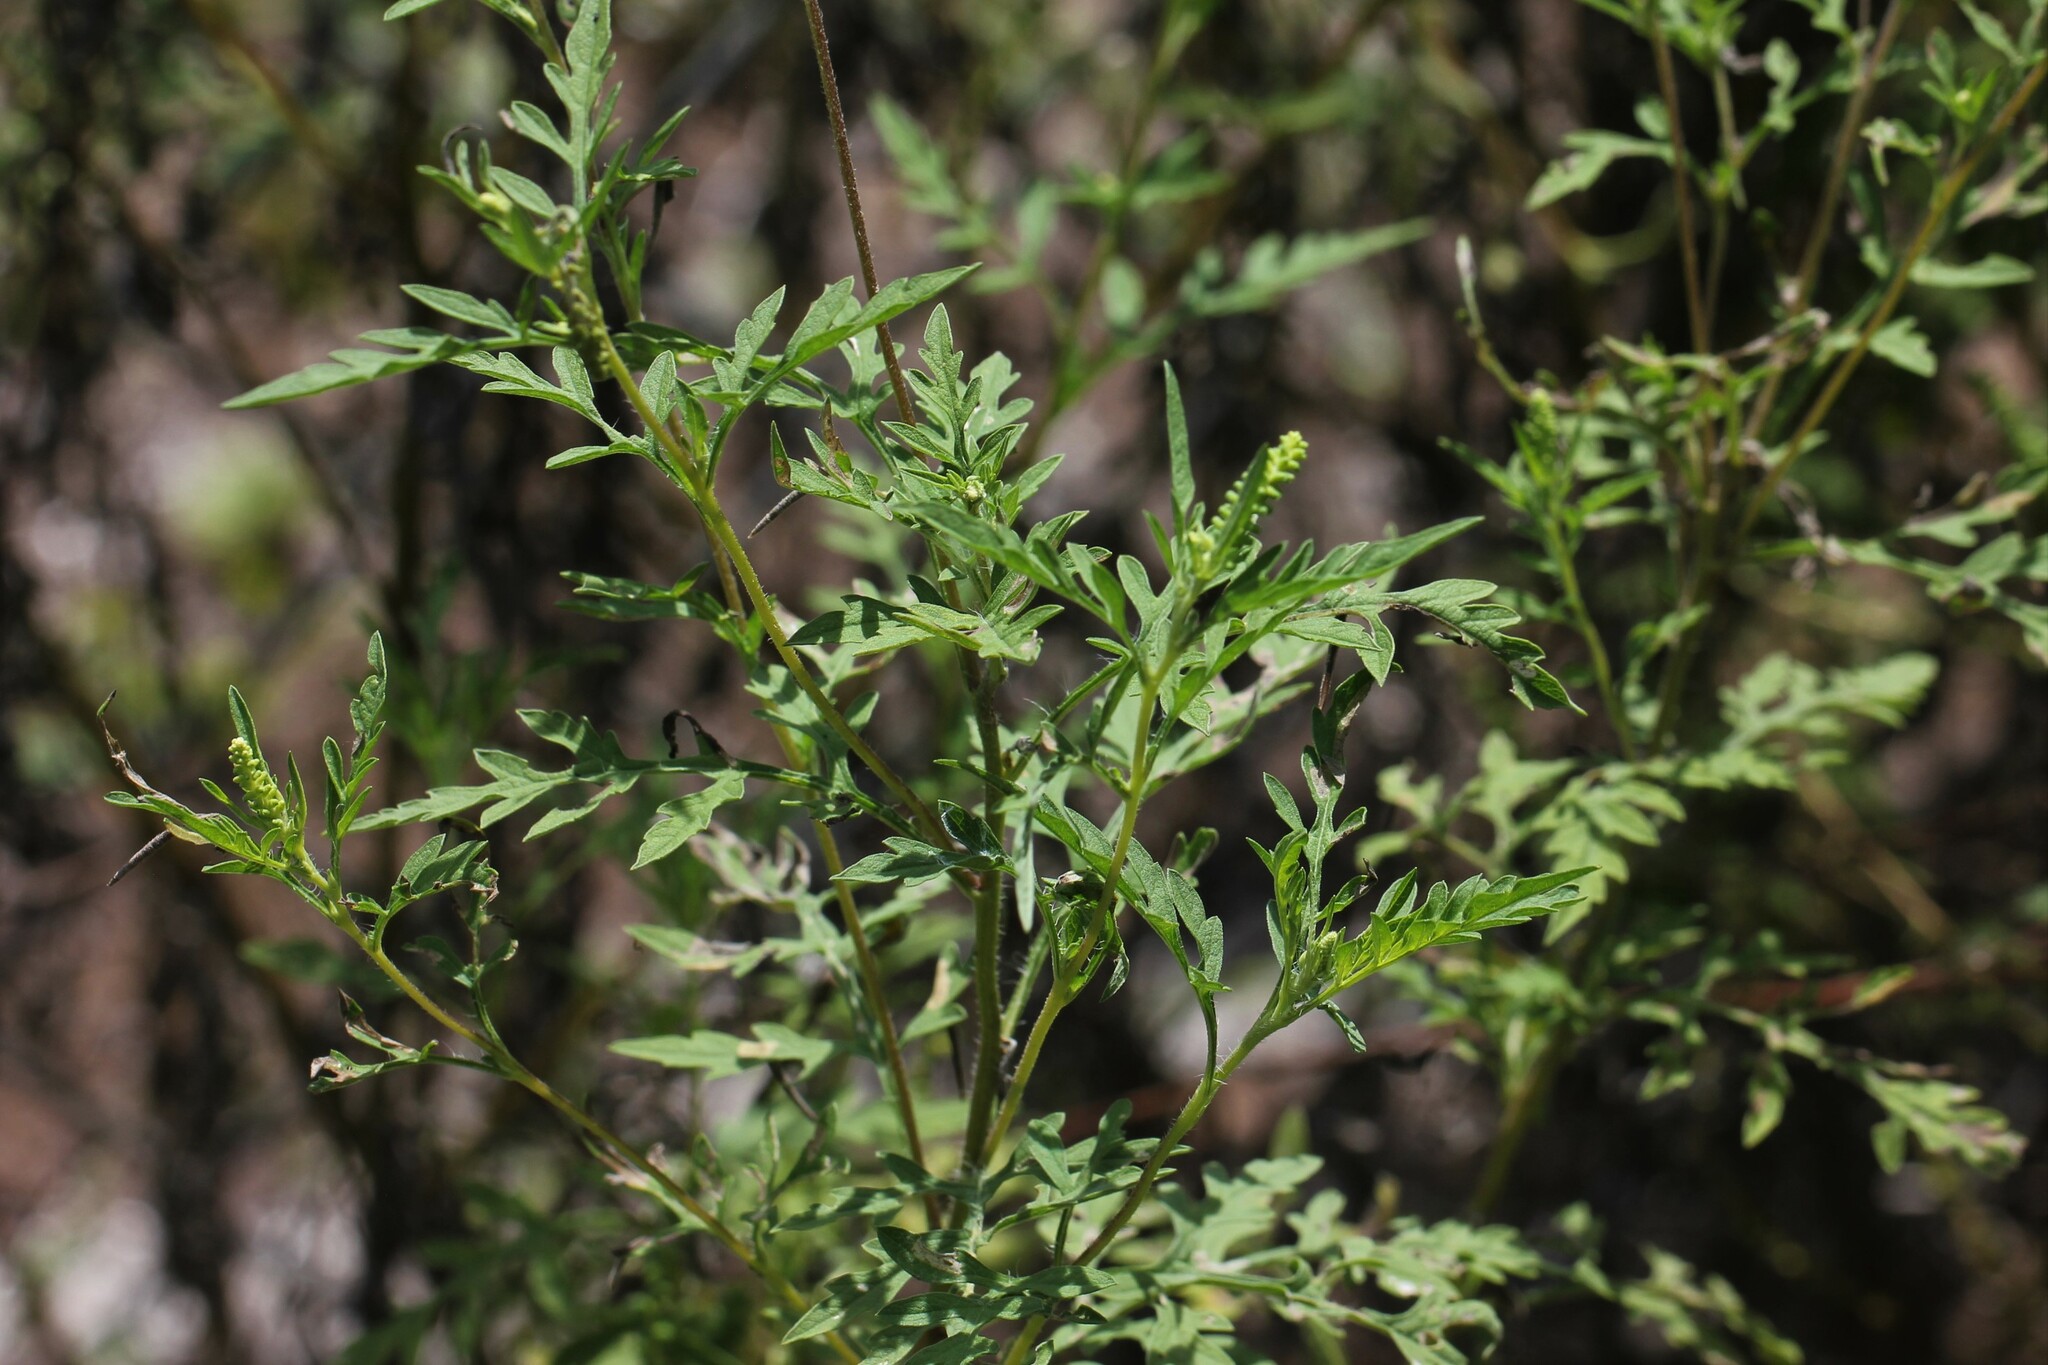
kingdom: Plantae
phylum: Tracheophyta
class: Magnoliopsida
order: Asterales
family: Asteraceae
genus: Ambrosia
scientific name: Ambrosia artemisiifolia
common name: Annual ragweed
